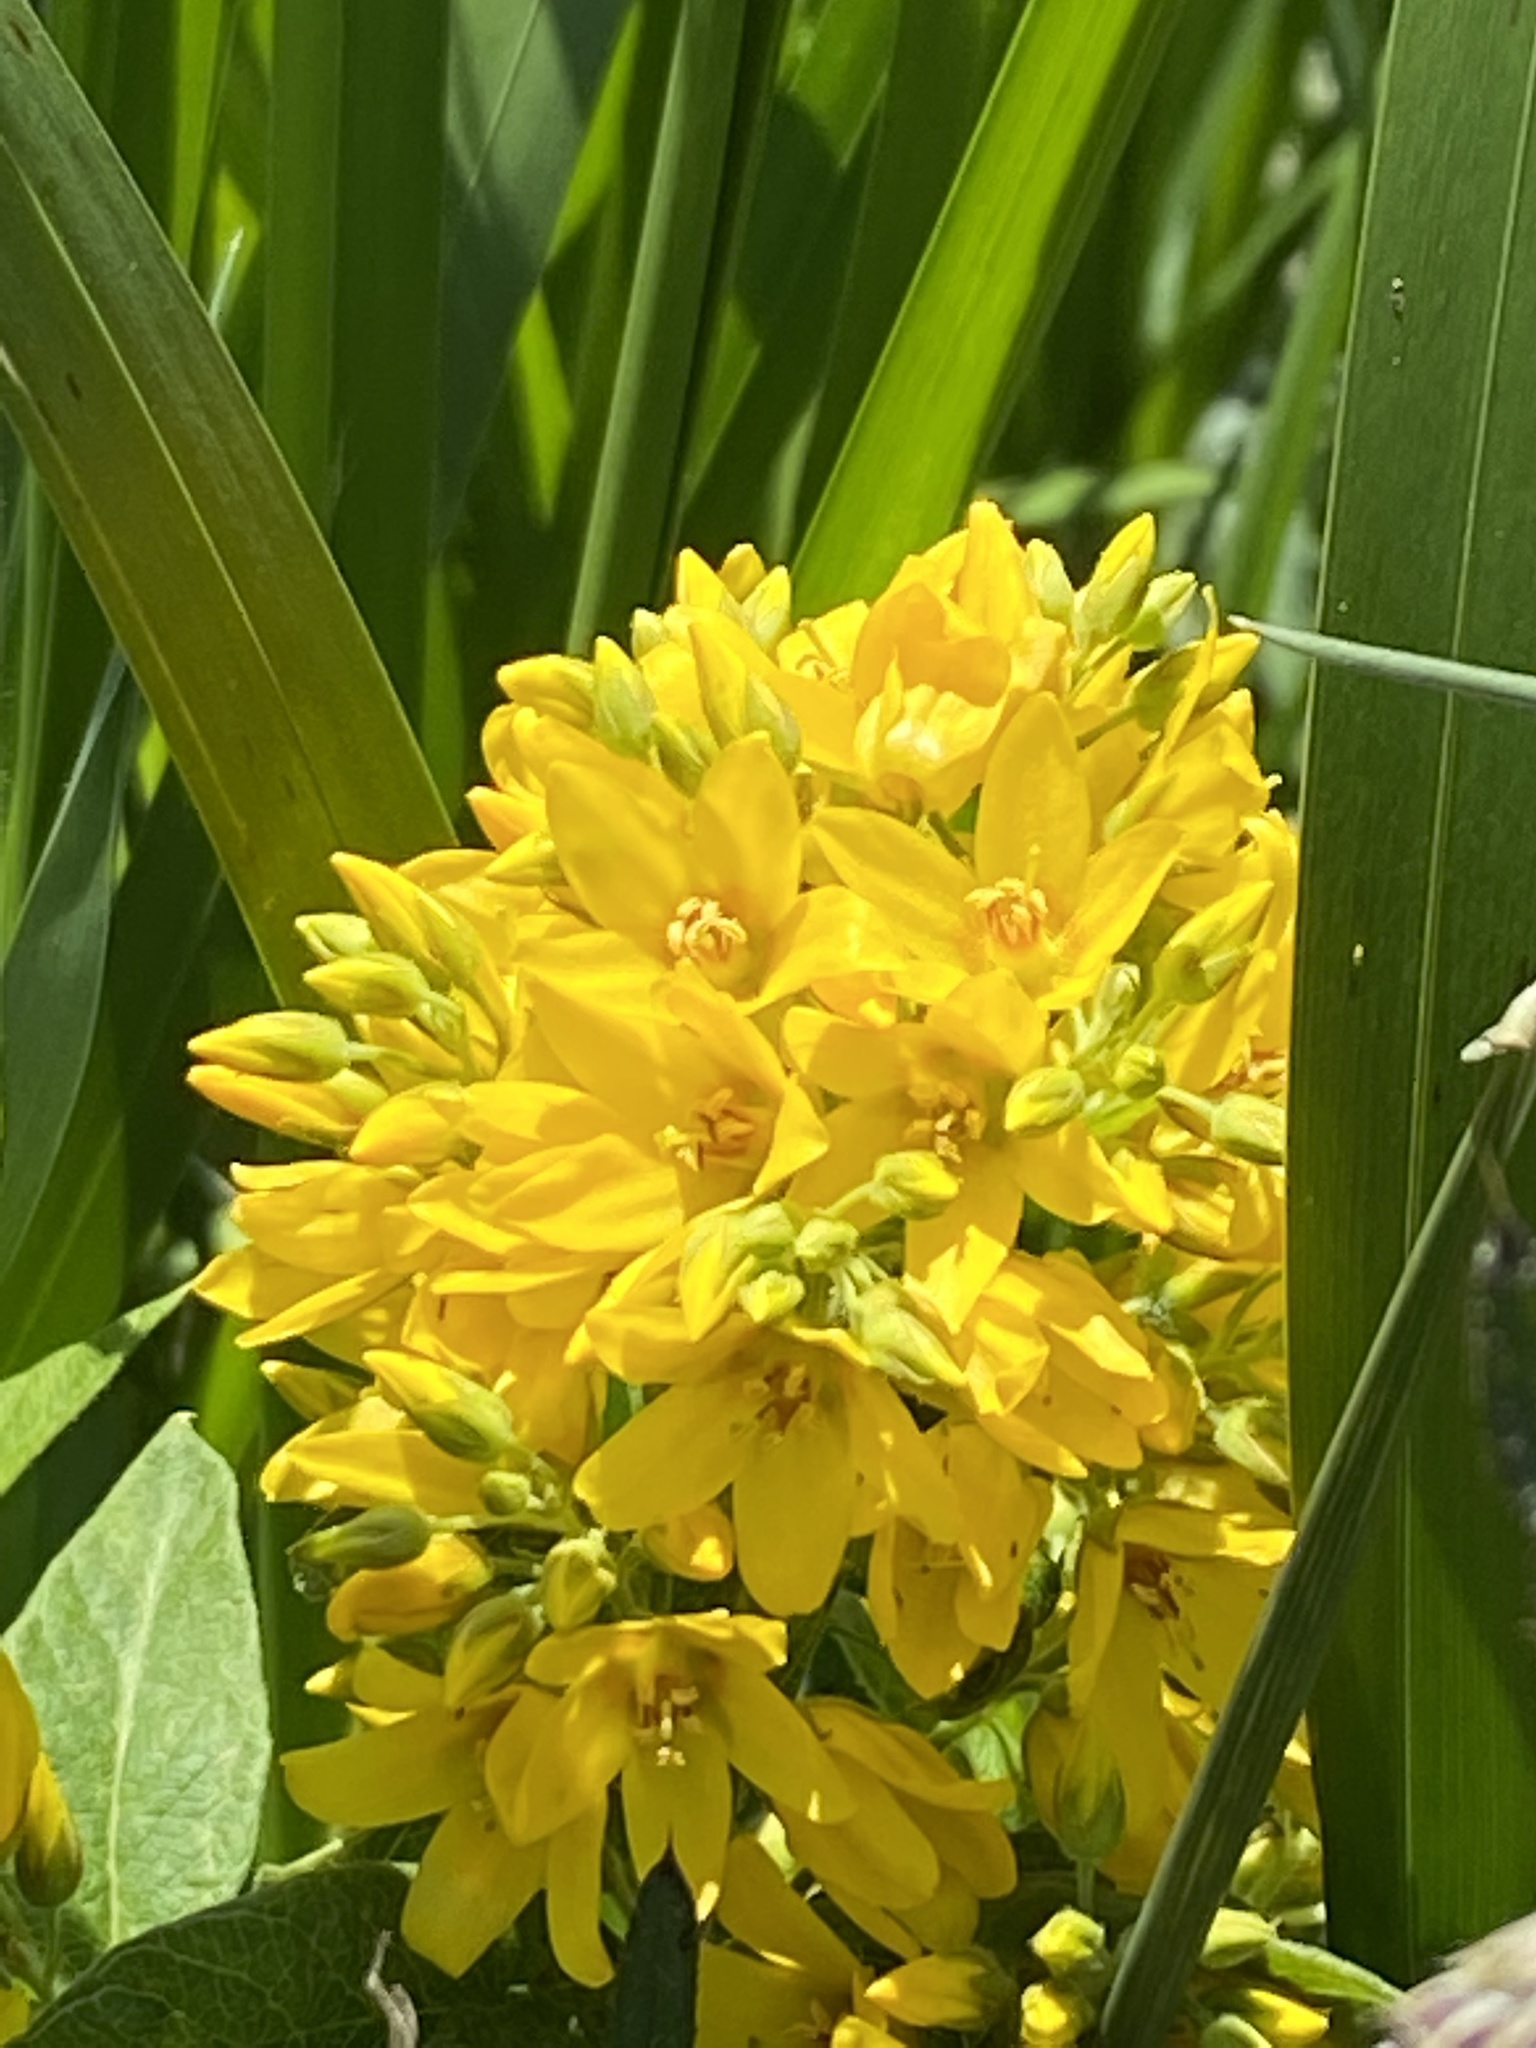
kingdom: Plantae
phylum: Tracheophyta
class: Magnoliopsida
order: Ericales
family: Primulaceae
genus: Lysimachia
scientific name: Lysimachia vulgaris
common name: Yellow loosestrife
